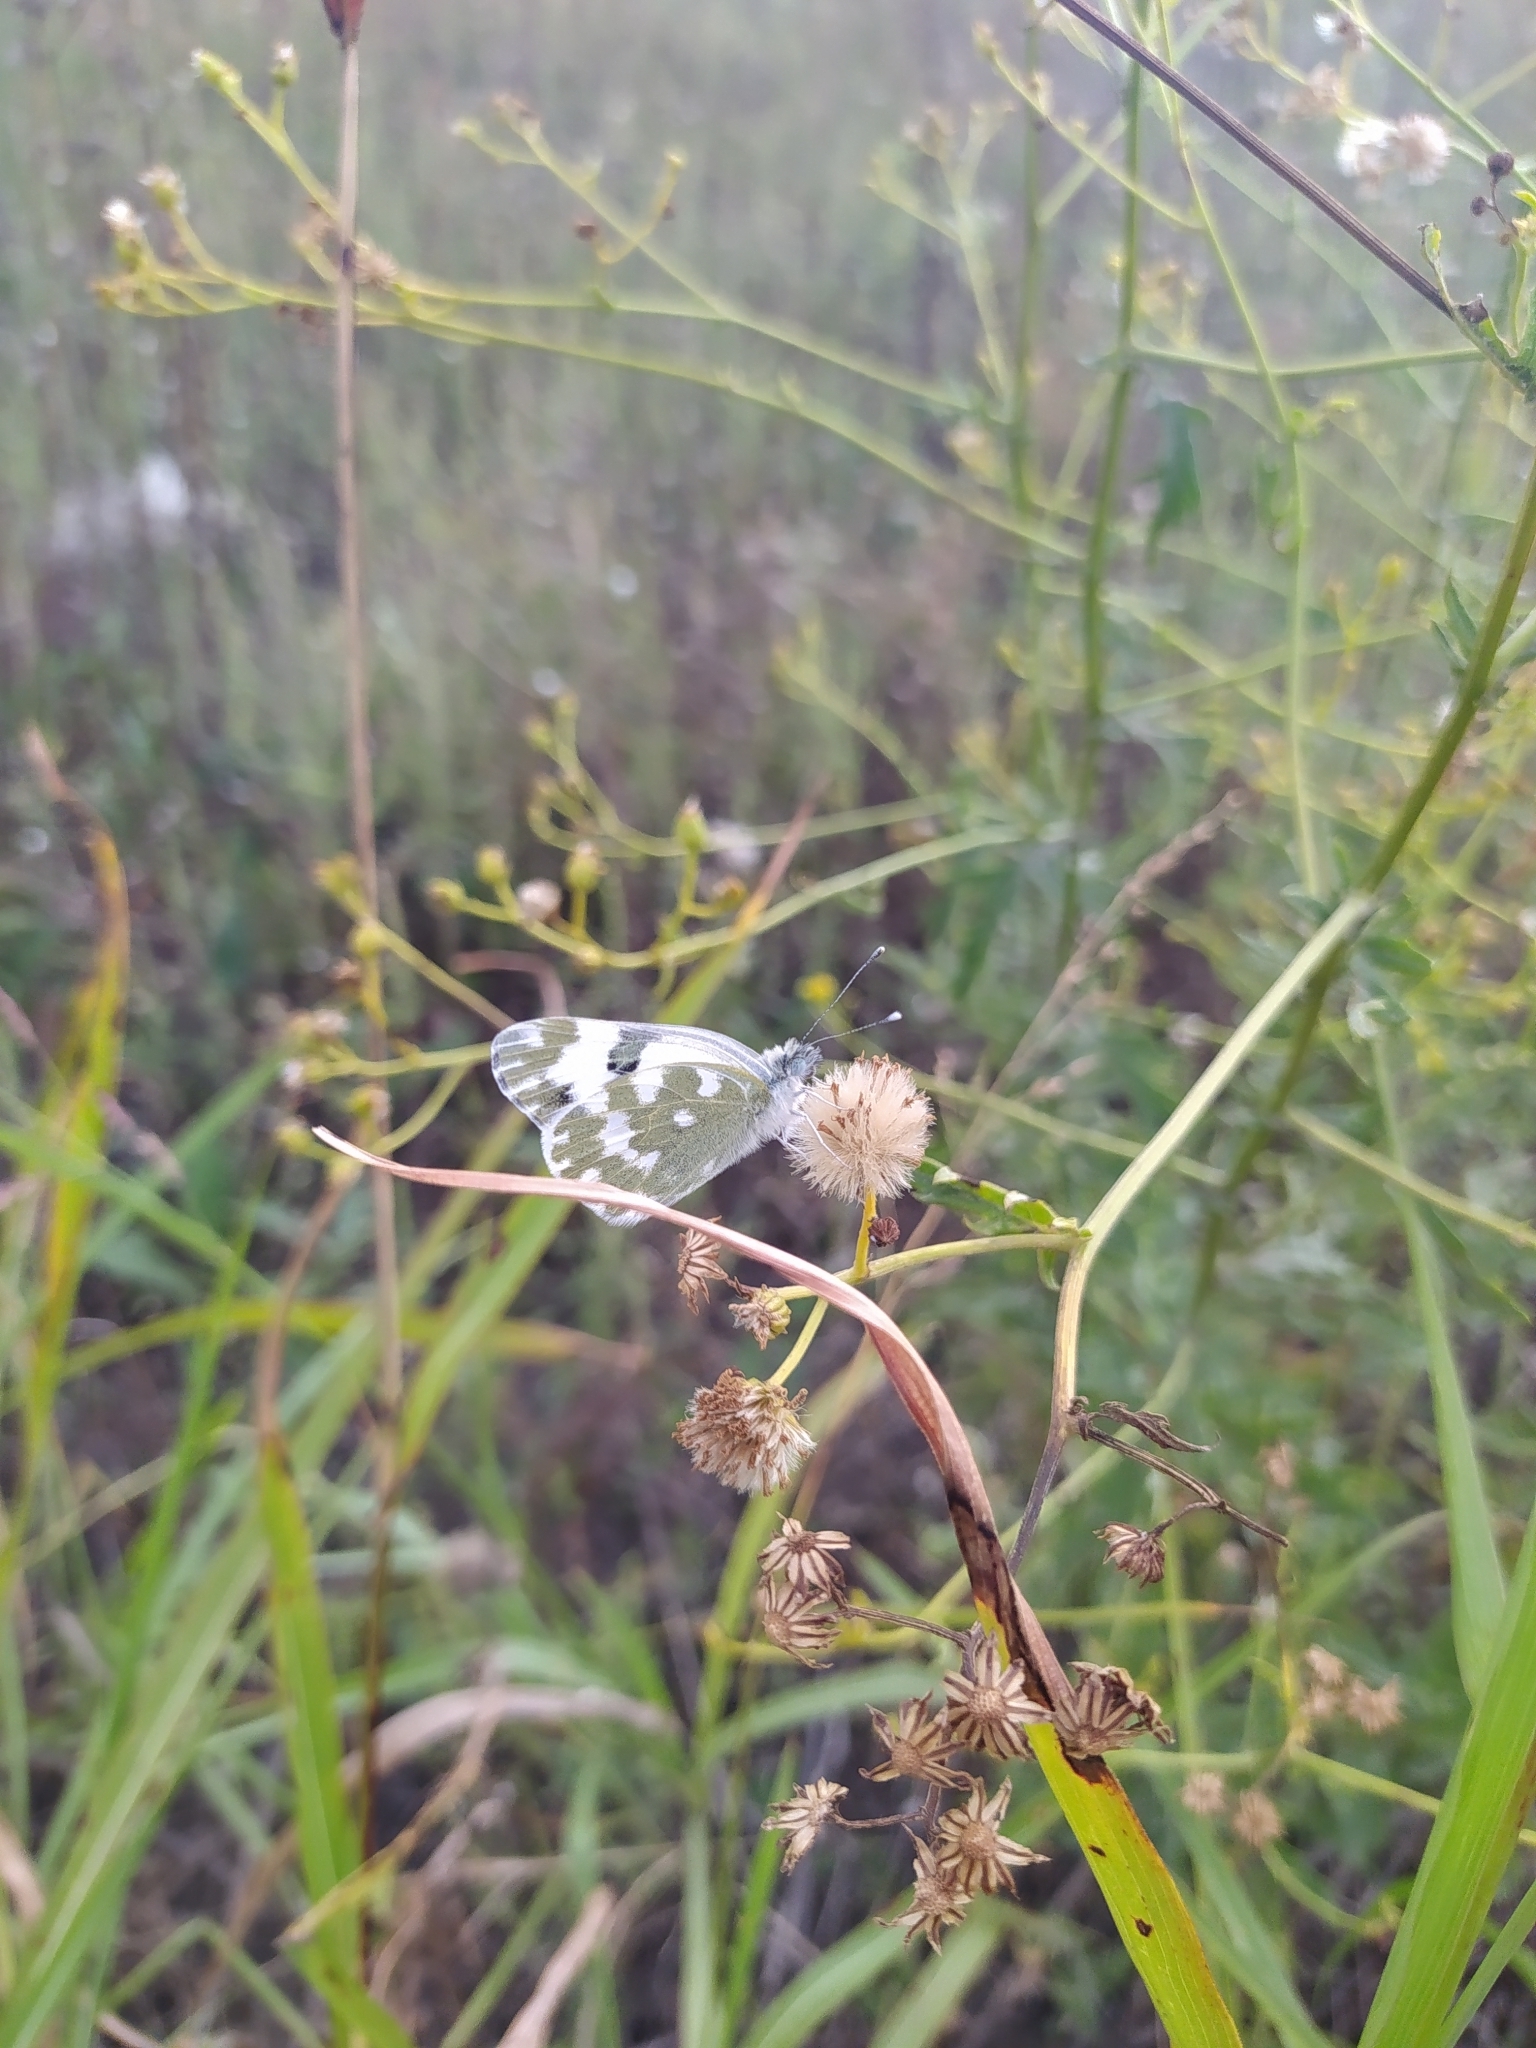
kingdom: Animalia
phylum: Arthropoda
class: Insecta
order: Lepidoptera
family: Pieridae
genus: Pontia
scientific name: Pontia edusa
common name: Eastern bath white
